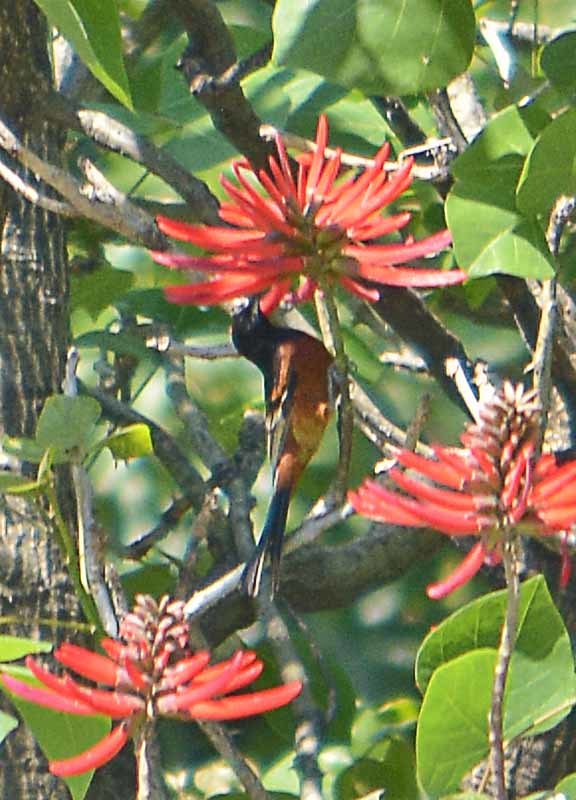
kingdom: Animalia
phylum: Chordata
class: Aves
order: Passeriformes
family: Thraupidae
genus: Diglossa
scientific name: Diglossa baritula
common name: Cinnamon-bellied flowerpiercer
